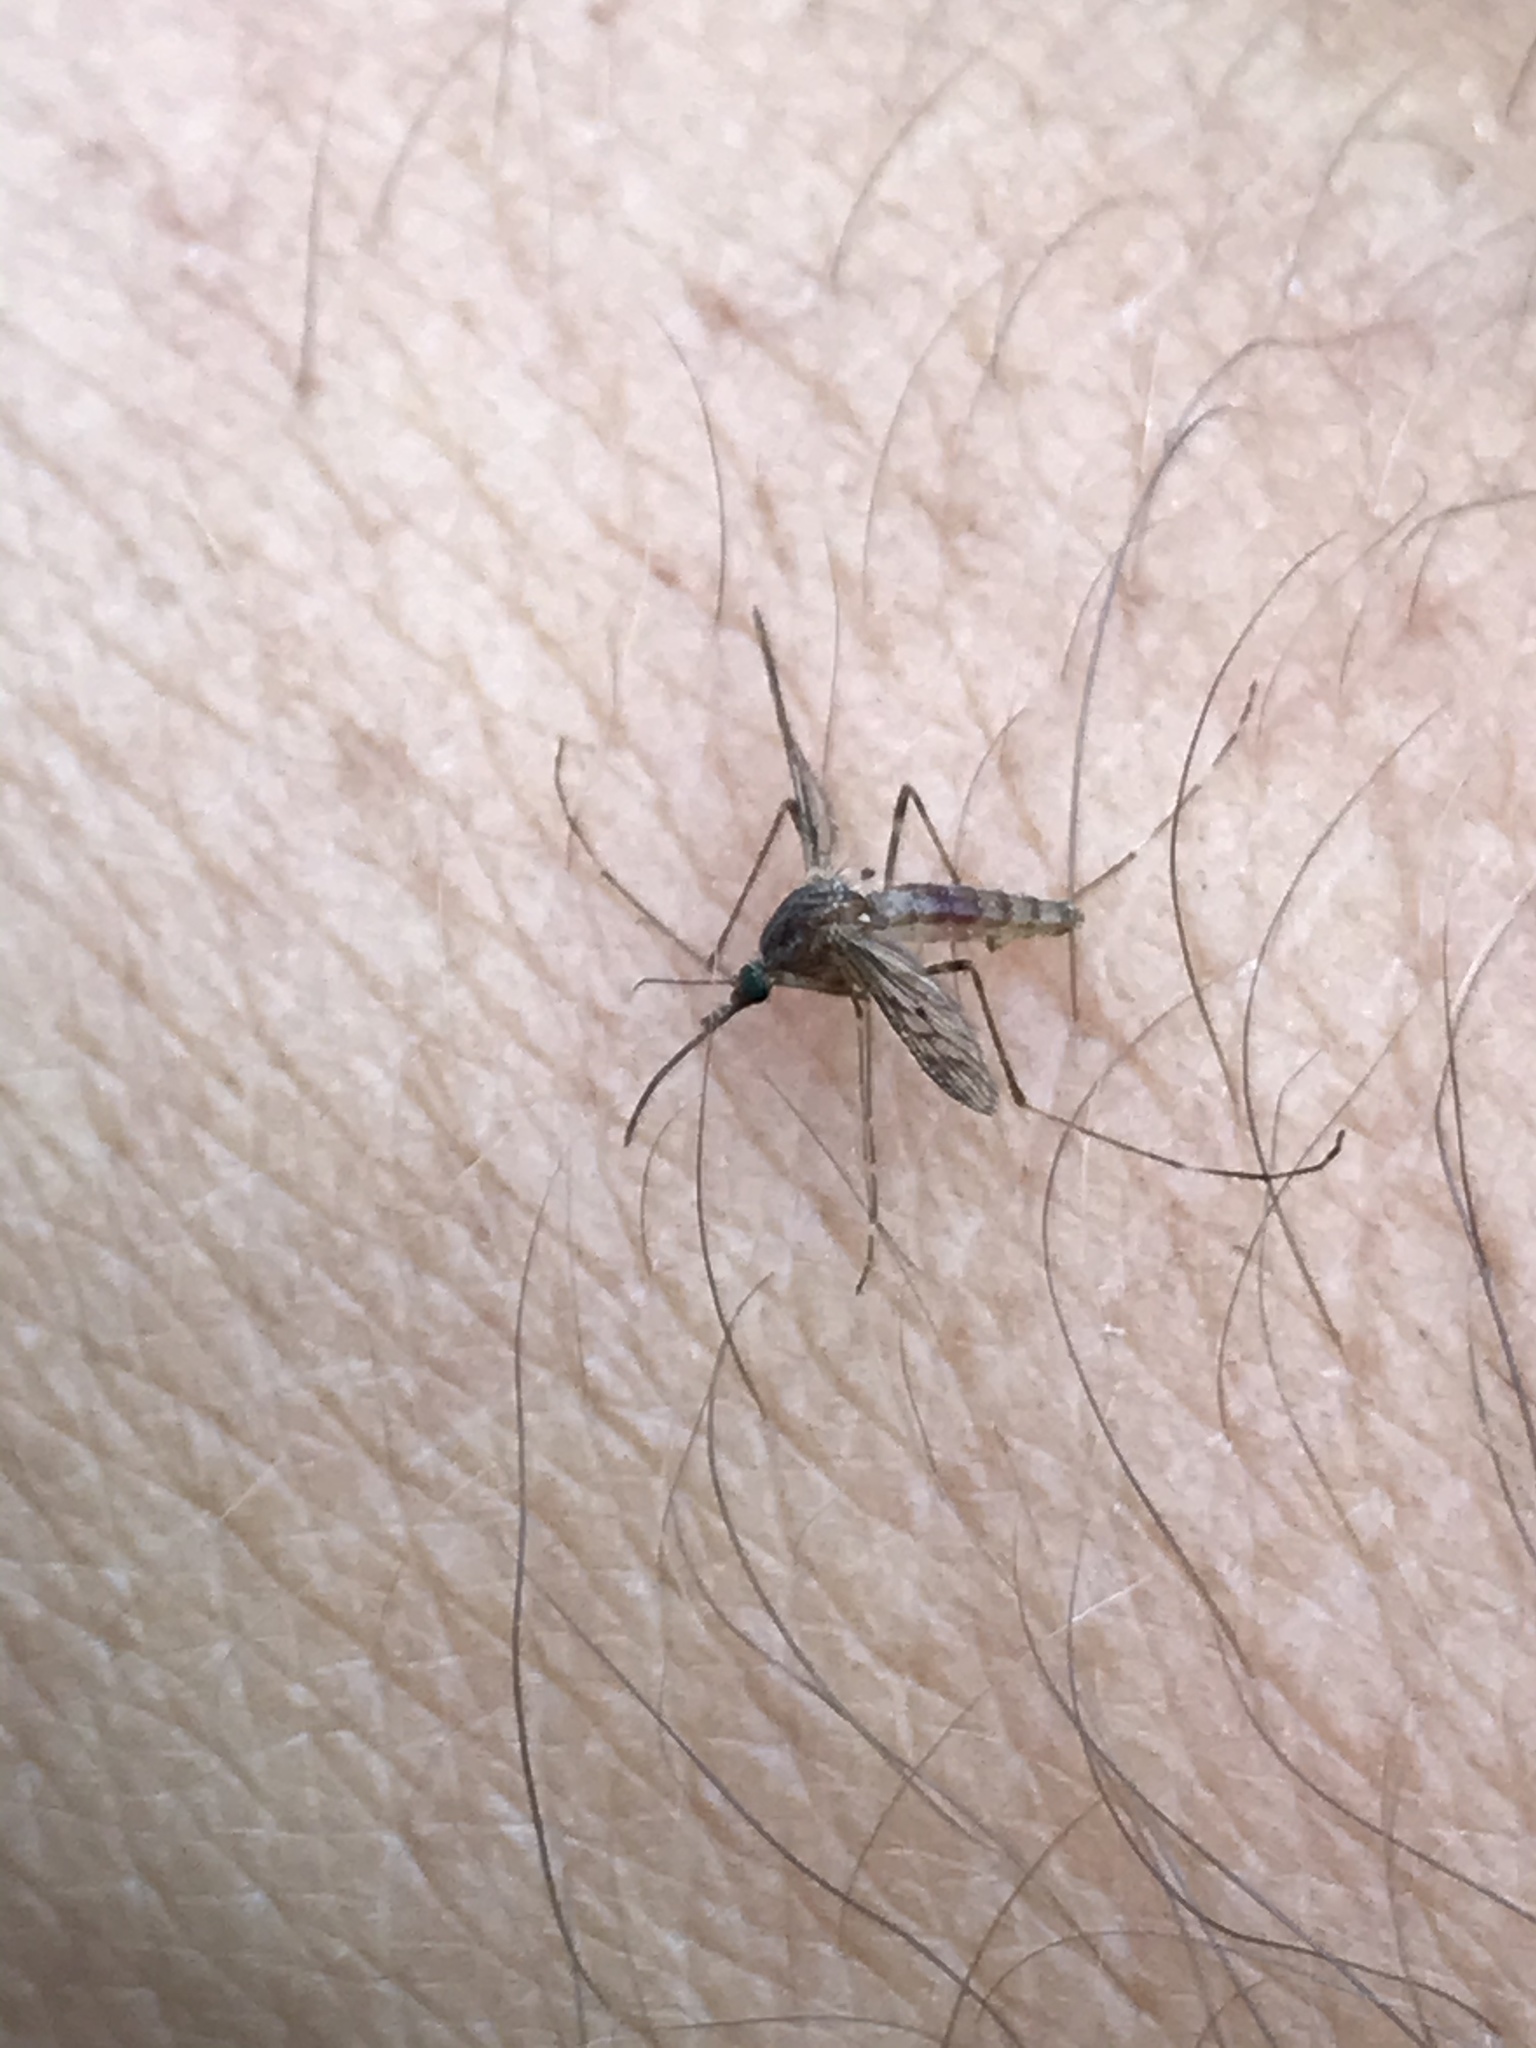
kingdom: Animalia
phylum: Arthropoda
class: Insecta
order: Diptera
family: Culicidae
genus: Culiseta
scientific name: Culiseta particeps
